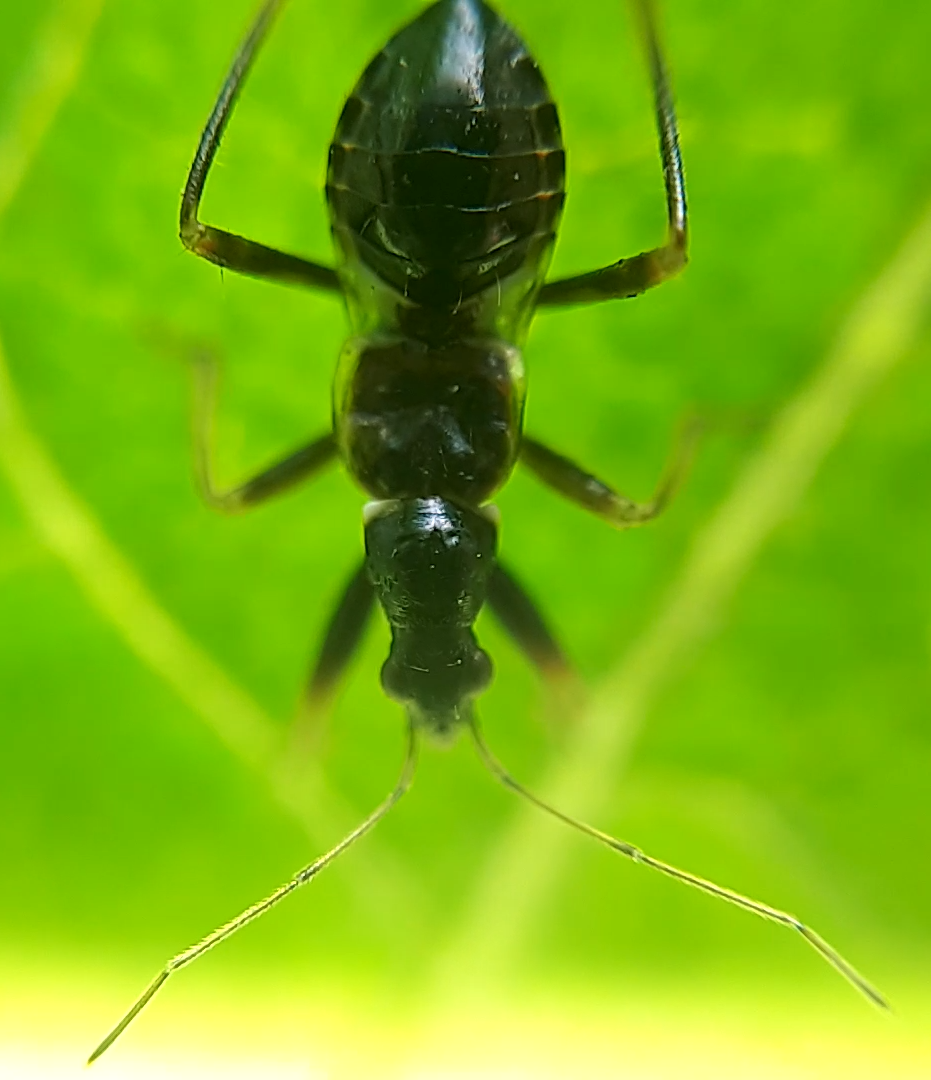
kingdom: Animalia
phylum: Arthropoda
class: Insecta
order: Hemiptera
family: Nabidae
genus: Himacerus
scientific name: Himacerus mirmicoides
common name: Ant damsel bug
